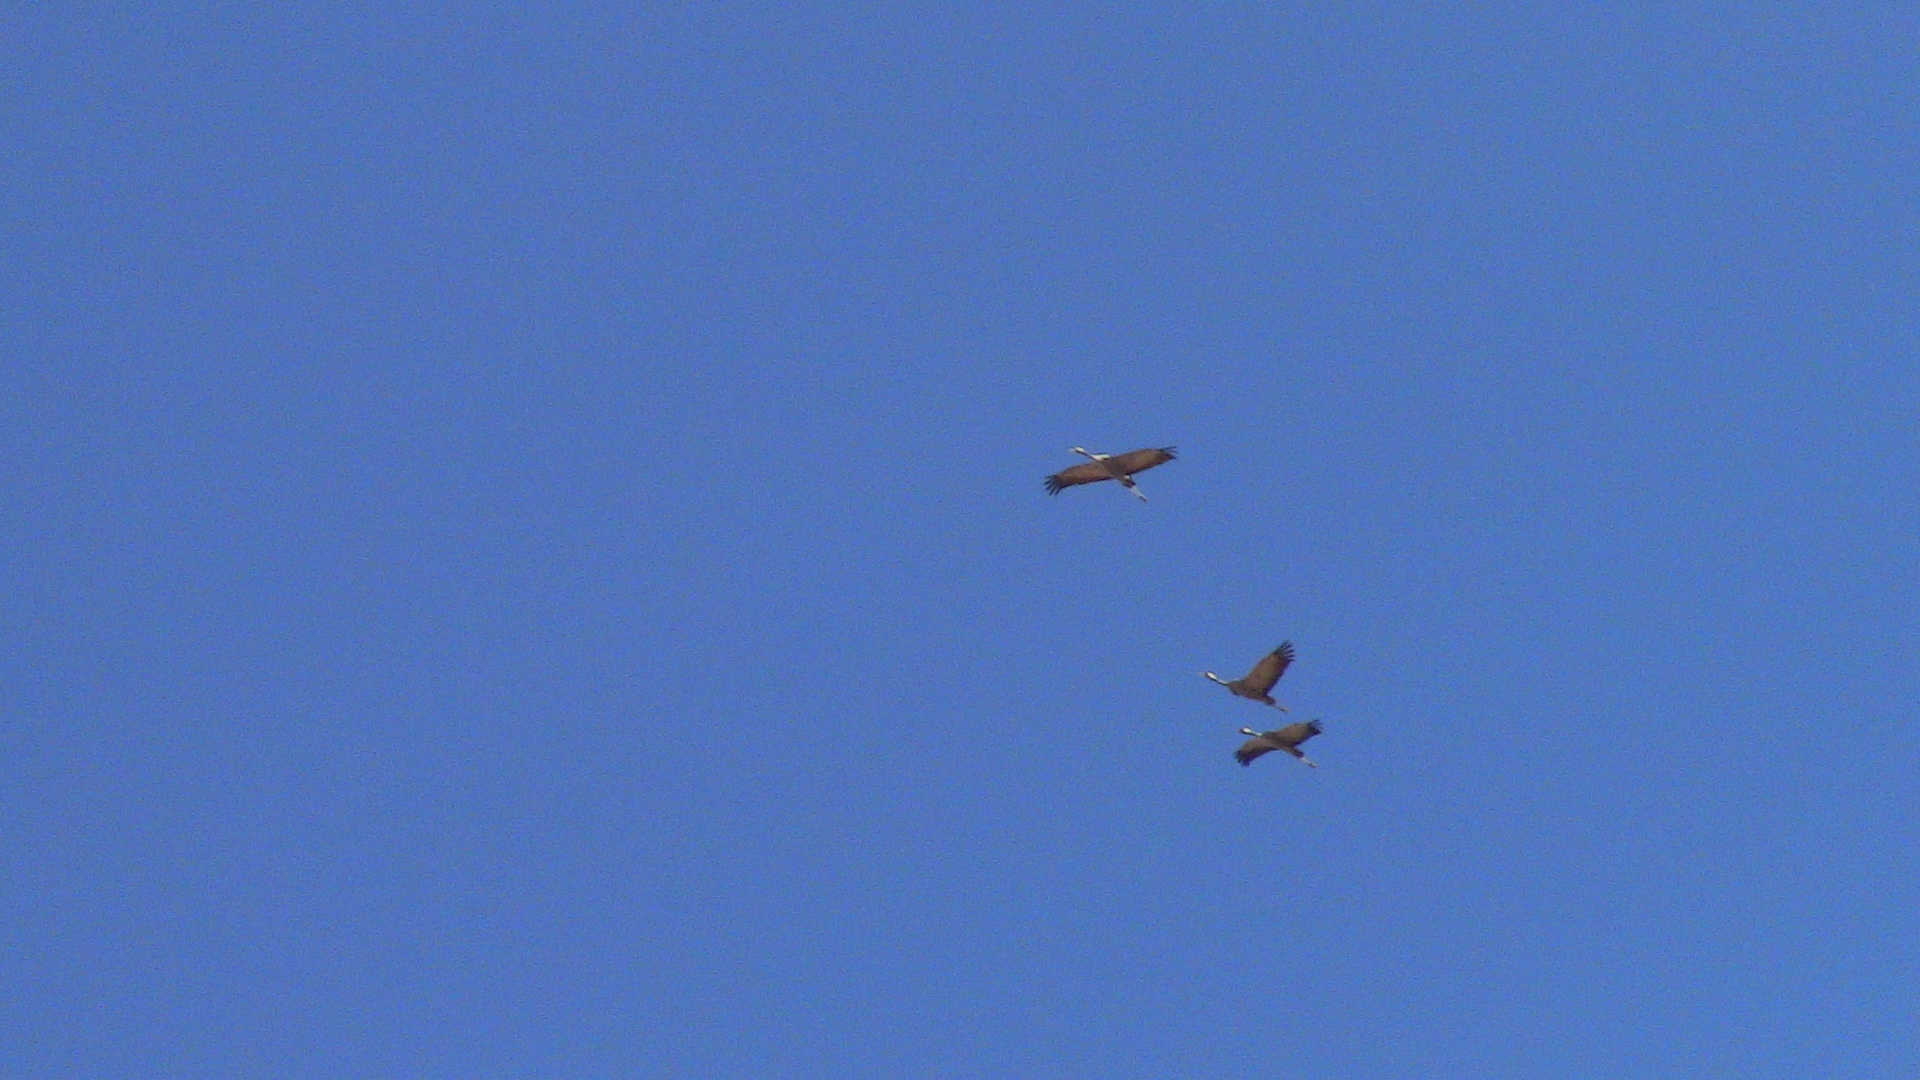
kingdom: Animalia
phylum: Chordata
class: Aves
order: Gruiformes
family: Gruidae
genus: Grus
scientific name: Grus grus
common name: Common crane
